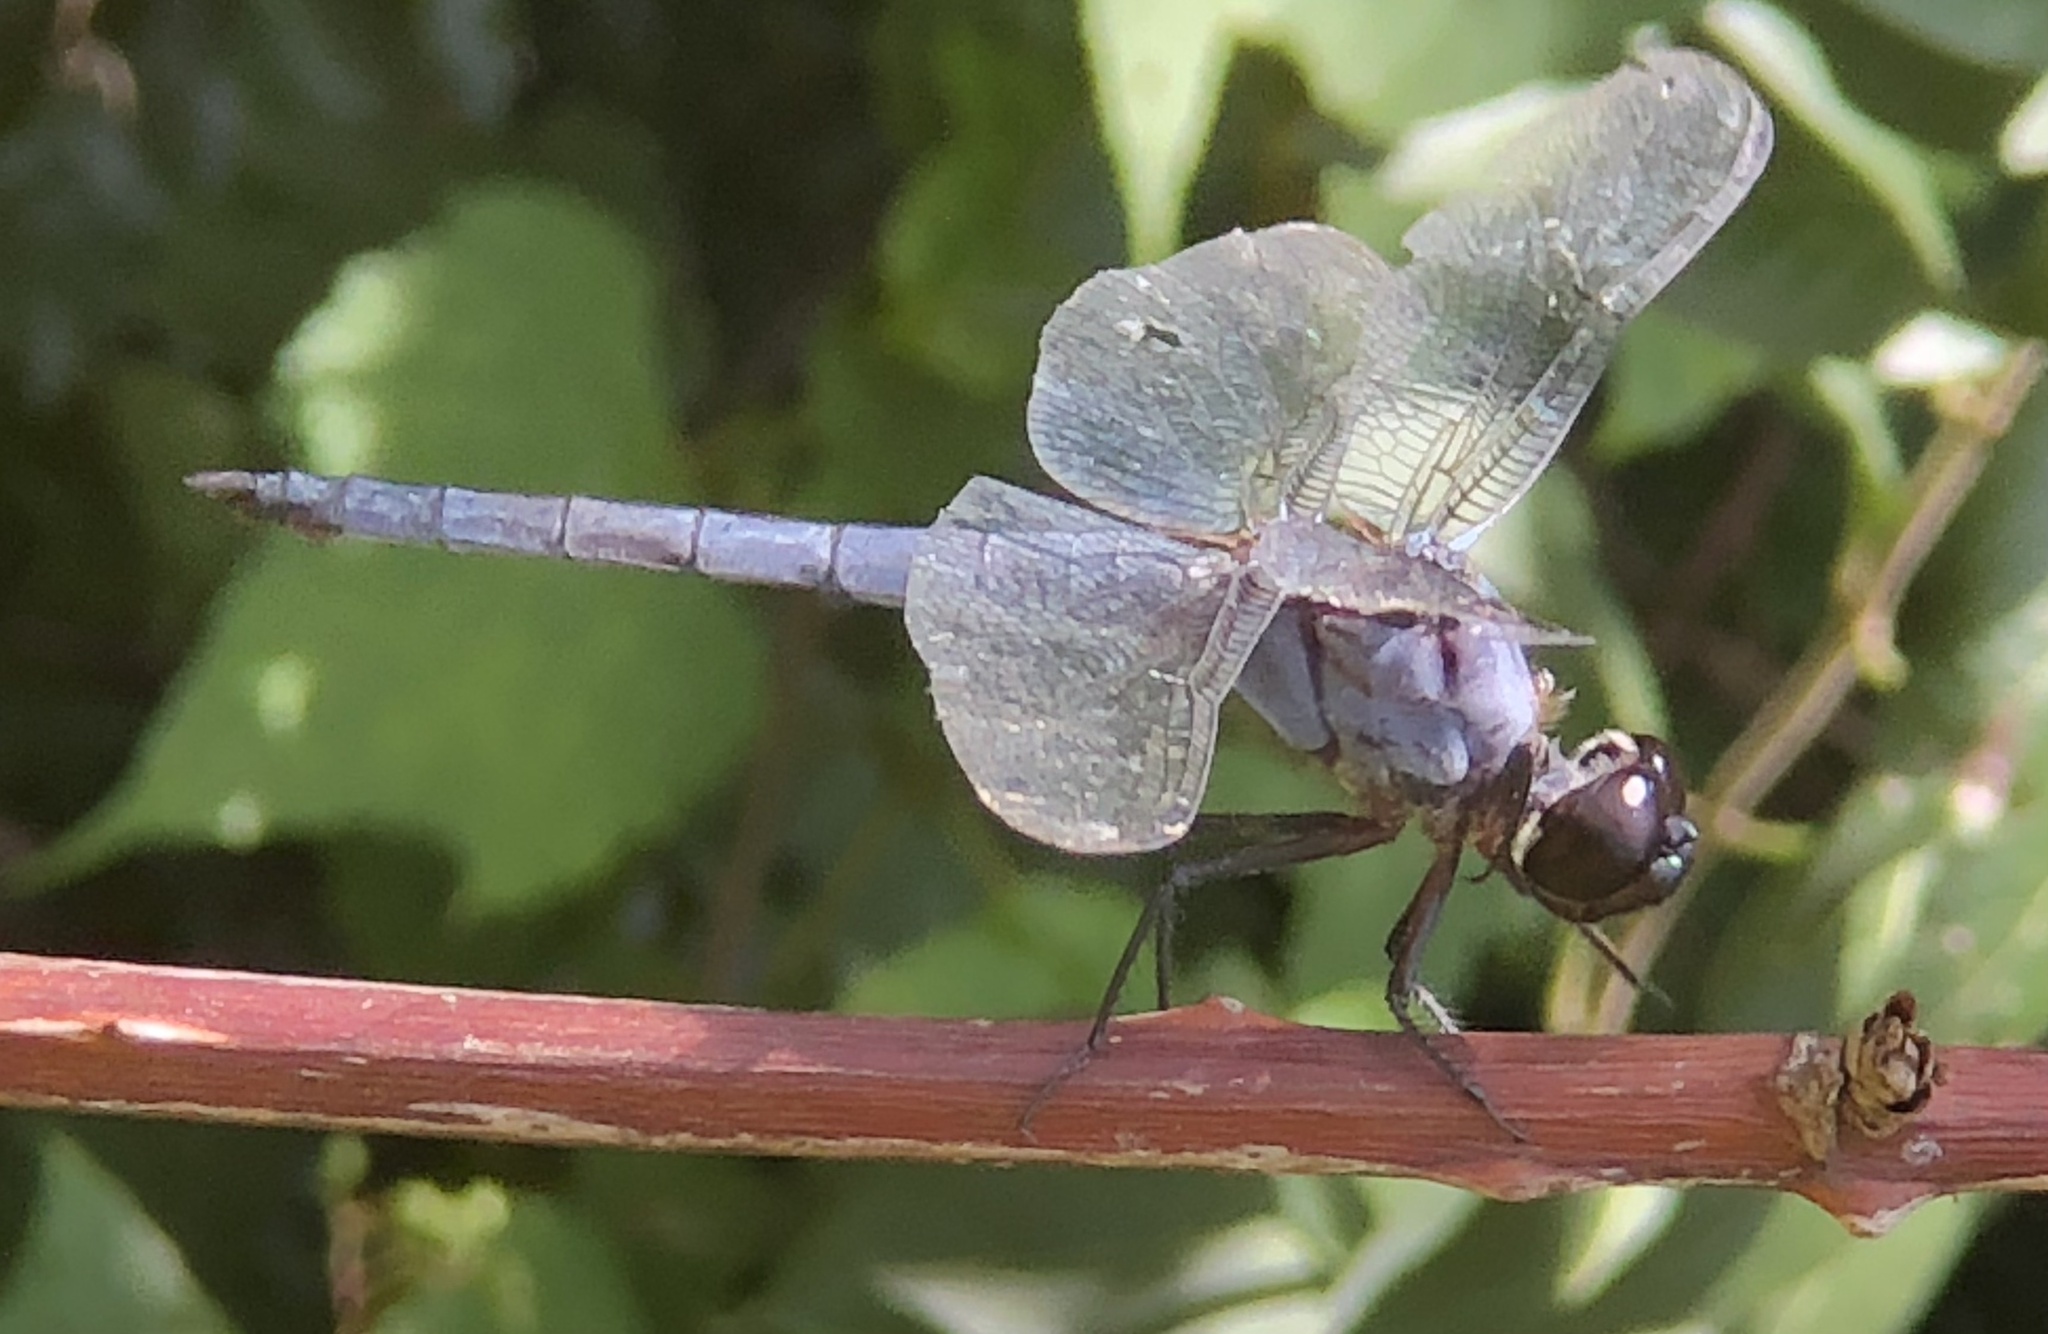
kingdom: Animalia
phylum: Arthropoda
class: Insecta
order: Odonata
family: Libellulidae
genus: Libellula
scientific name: Libellula incesta
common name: Slaty skimmer
